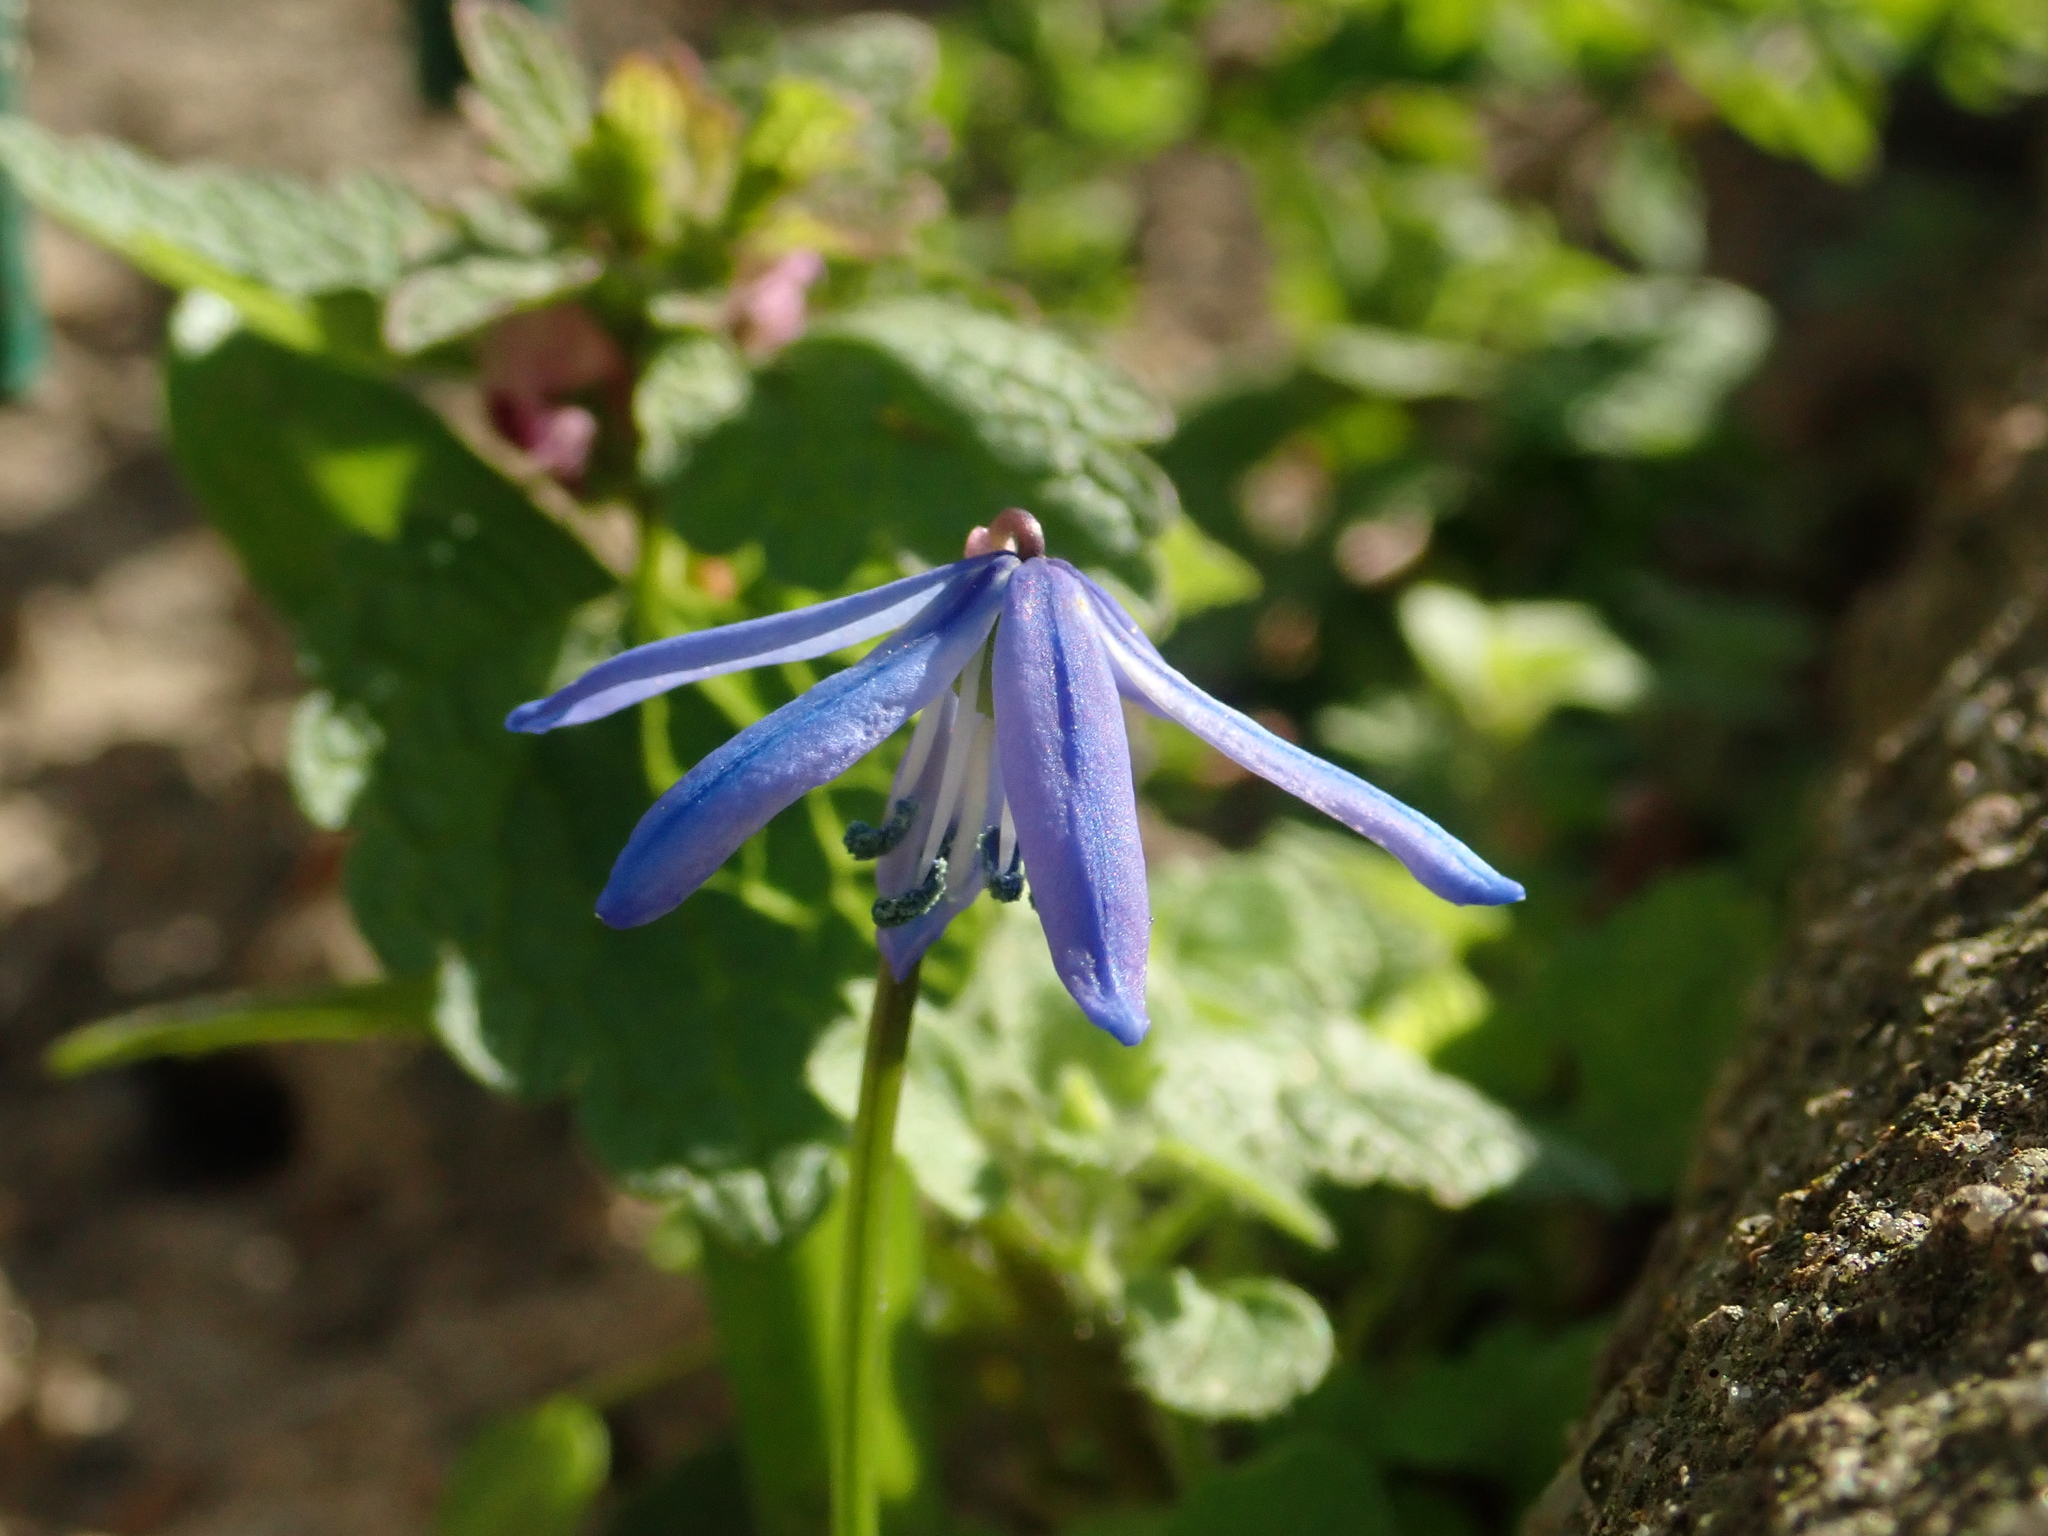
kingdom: Plantae
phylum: Tracheophyta
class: Liliopsida
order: Asparagales
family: Asparagaceae
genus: Scilla
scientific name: Scilla siberica
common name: Siberian squill
